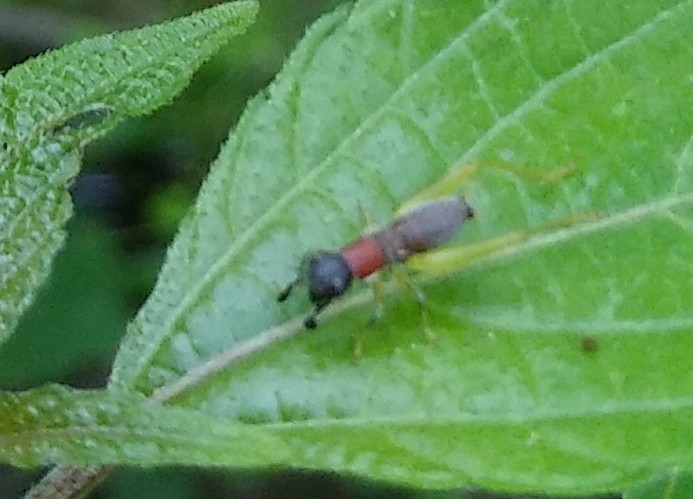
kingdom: Animalia
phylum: Arthropoda
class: Insecta
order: Orthoptera
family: Trigonidiidae
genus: Phyllopalpus
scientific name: Phyllopalpus pulchellus
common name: Handsome trig
